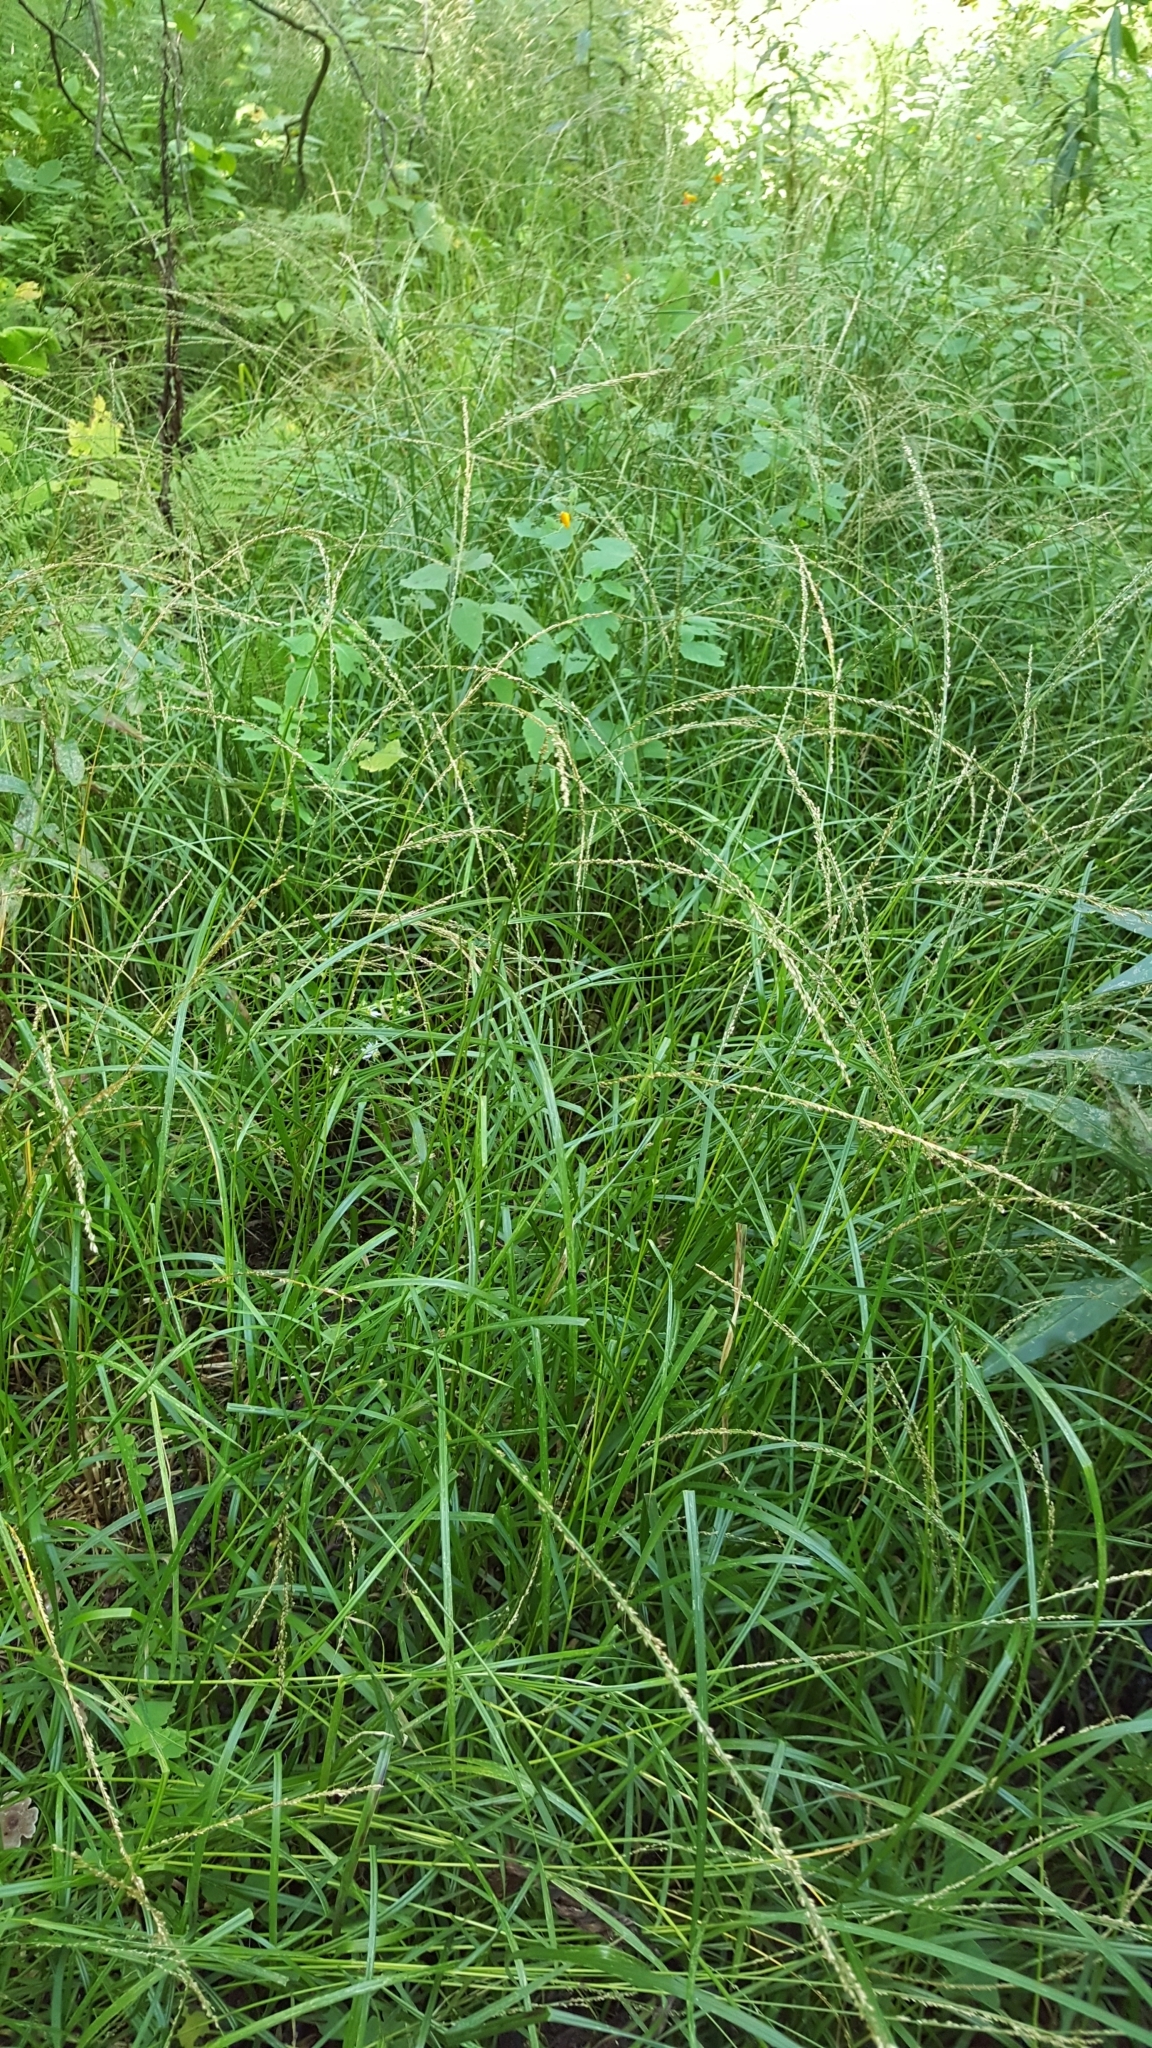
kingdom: Plantae
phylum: Tracheophyta
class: Liliopsida
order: Poales
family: Poaceae
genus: Glyceria
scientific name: Glyceria melicaria
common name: Long mannagrass
